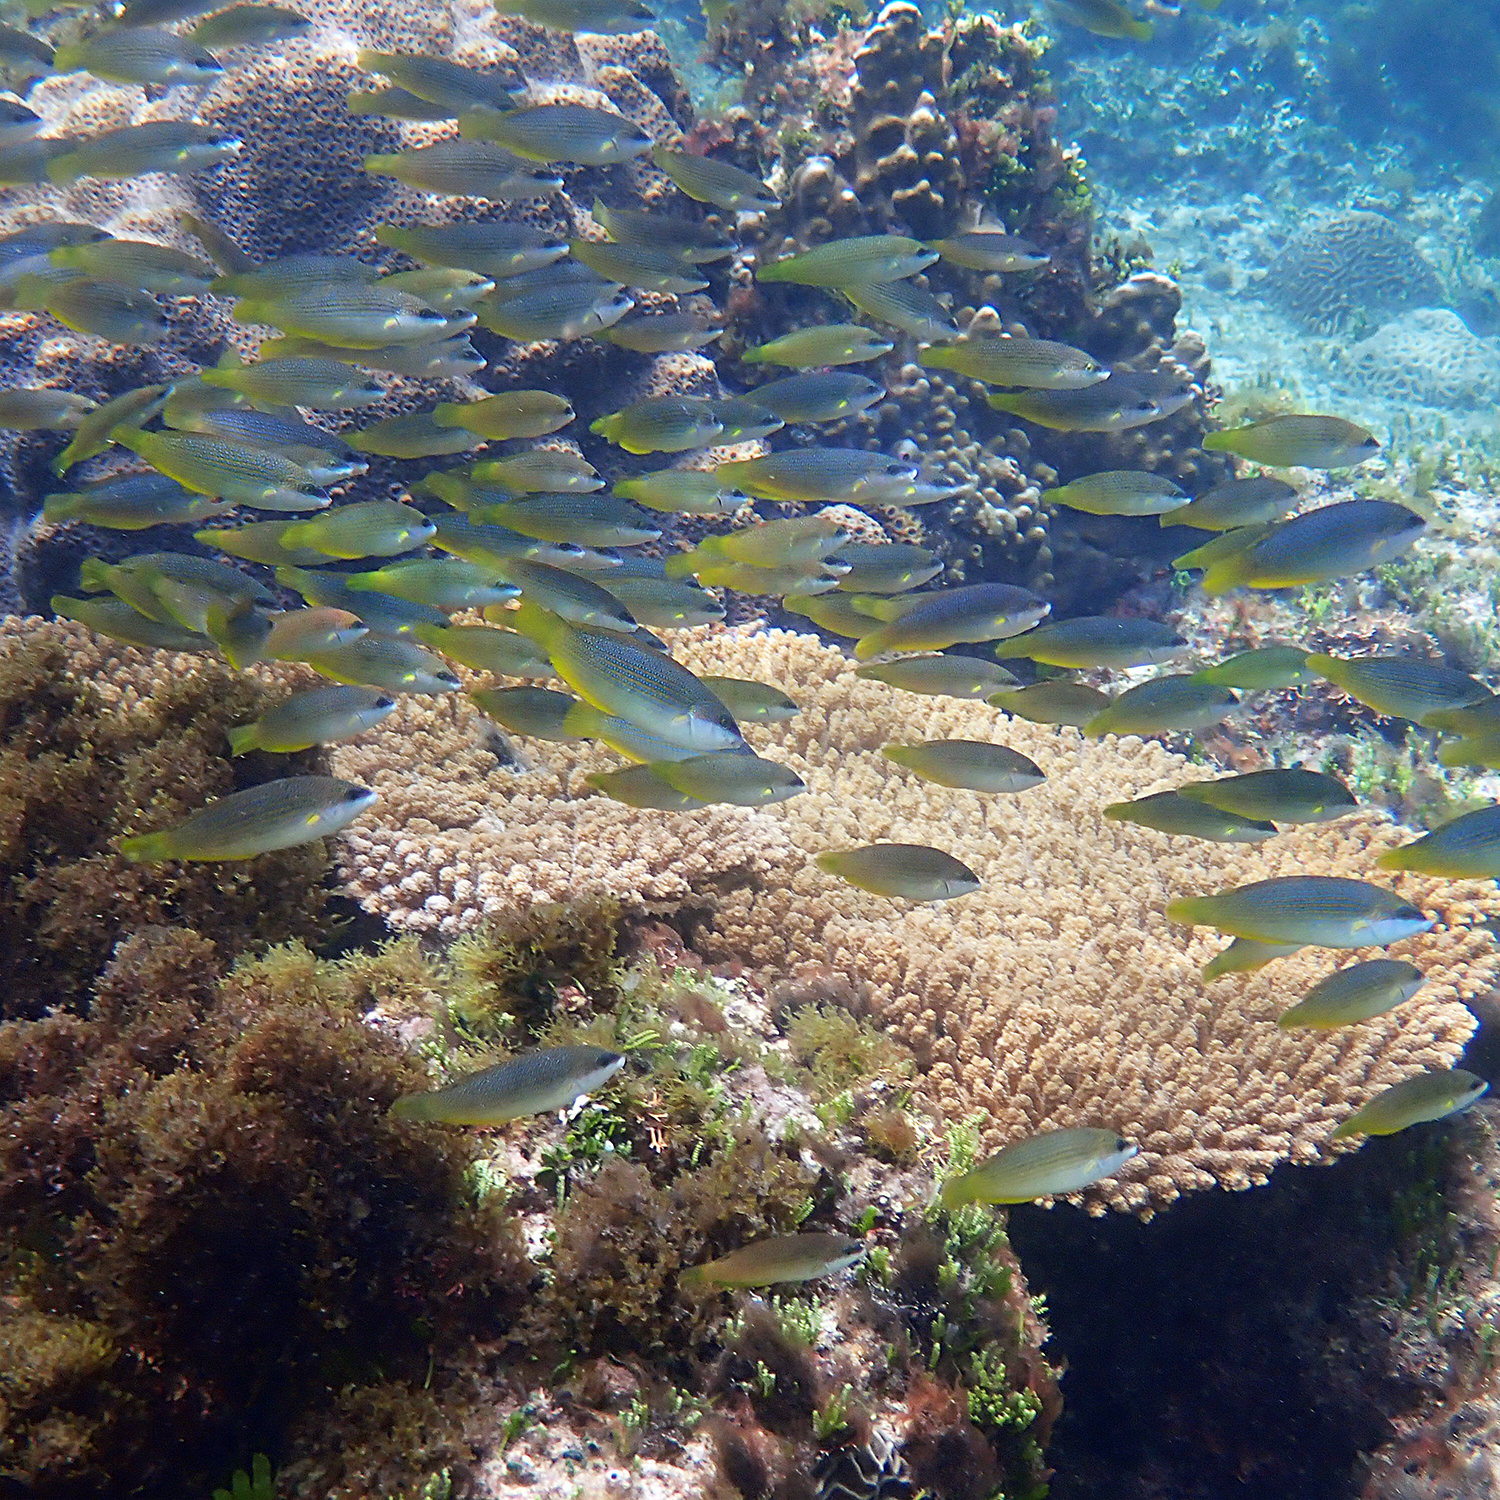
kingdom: Animalia
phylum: Chordata
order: Perciformes
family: Labridae
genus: Anampses
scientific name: Anampses elegans
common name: Elegant wrasse
